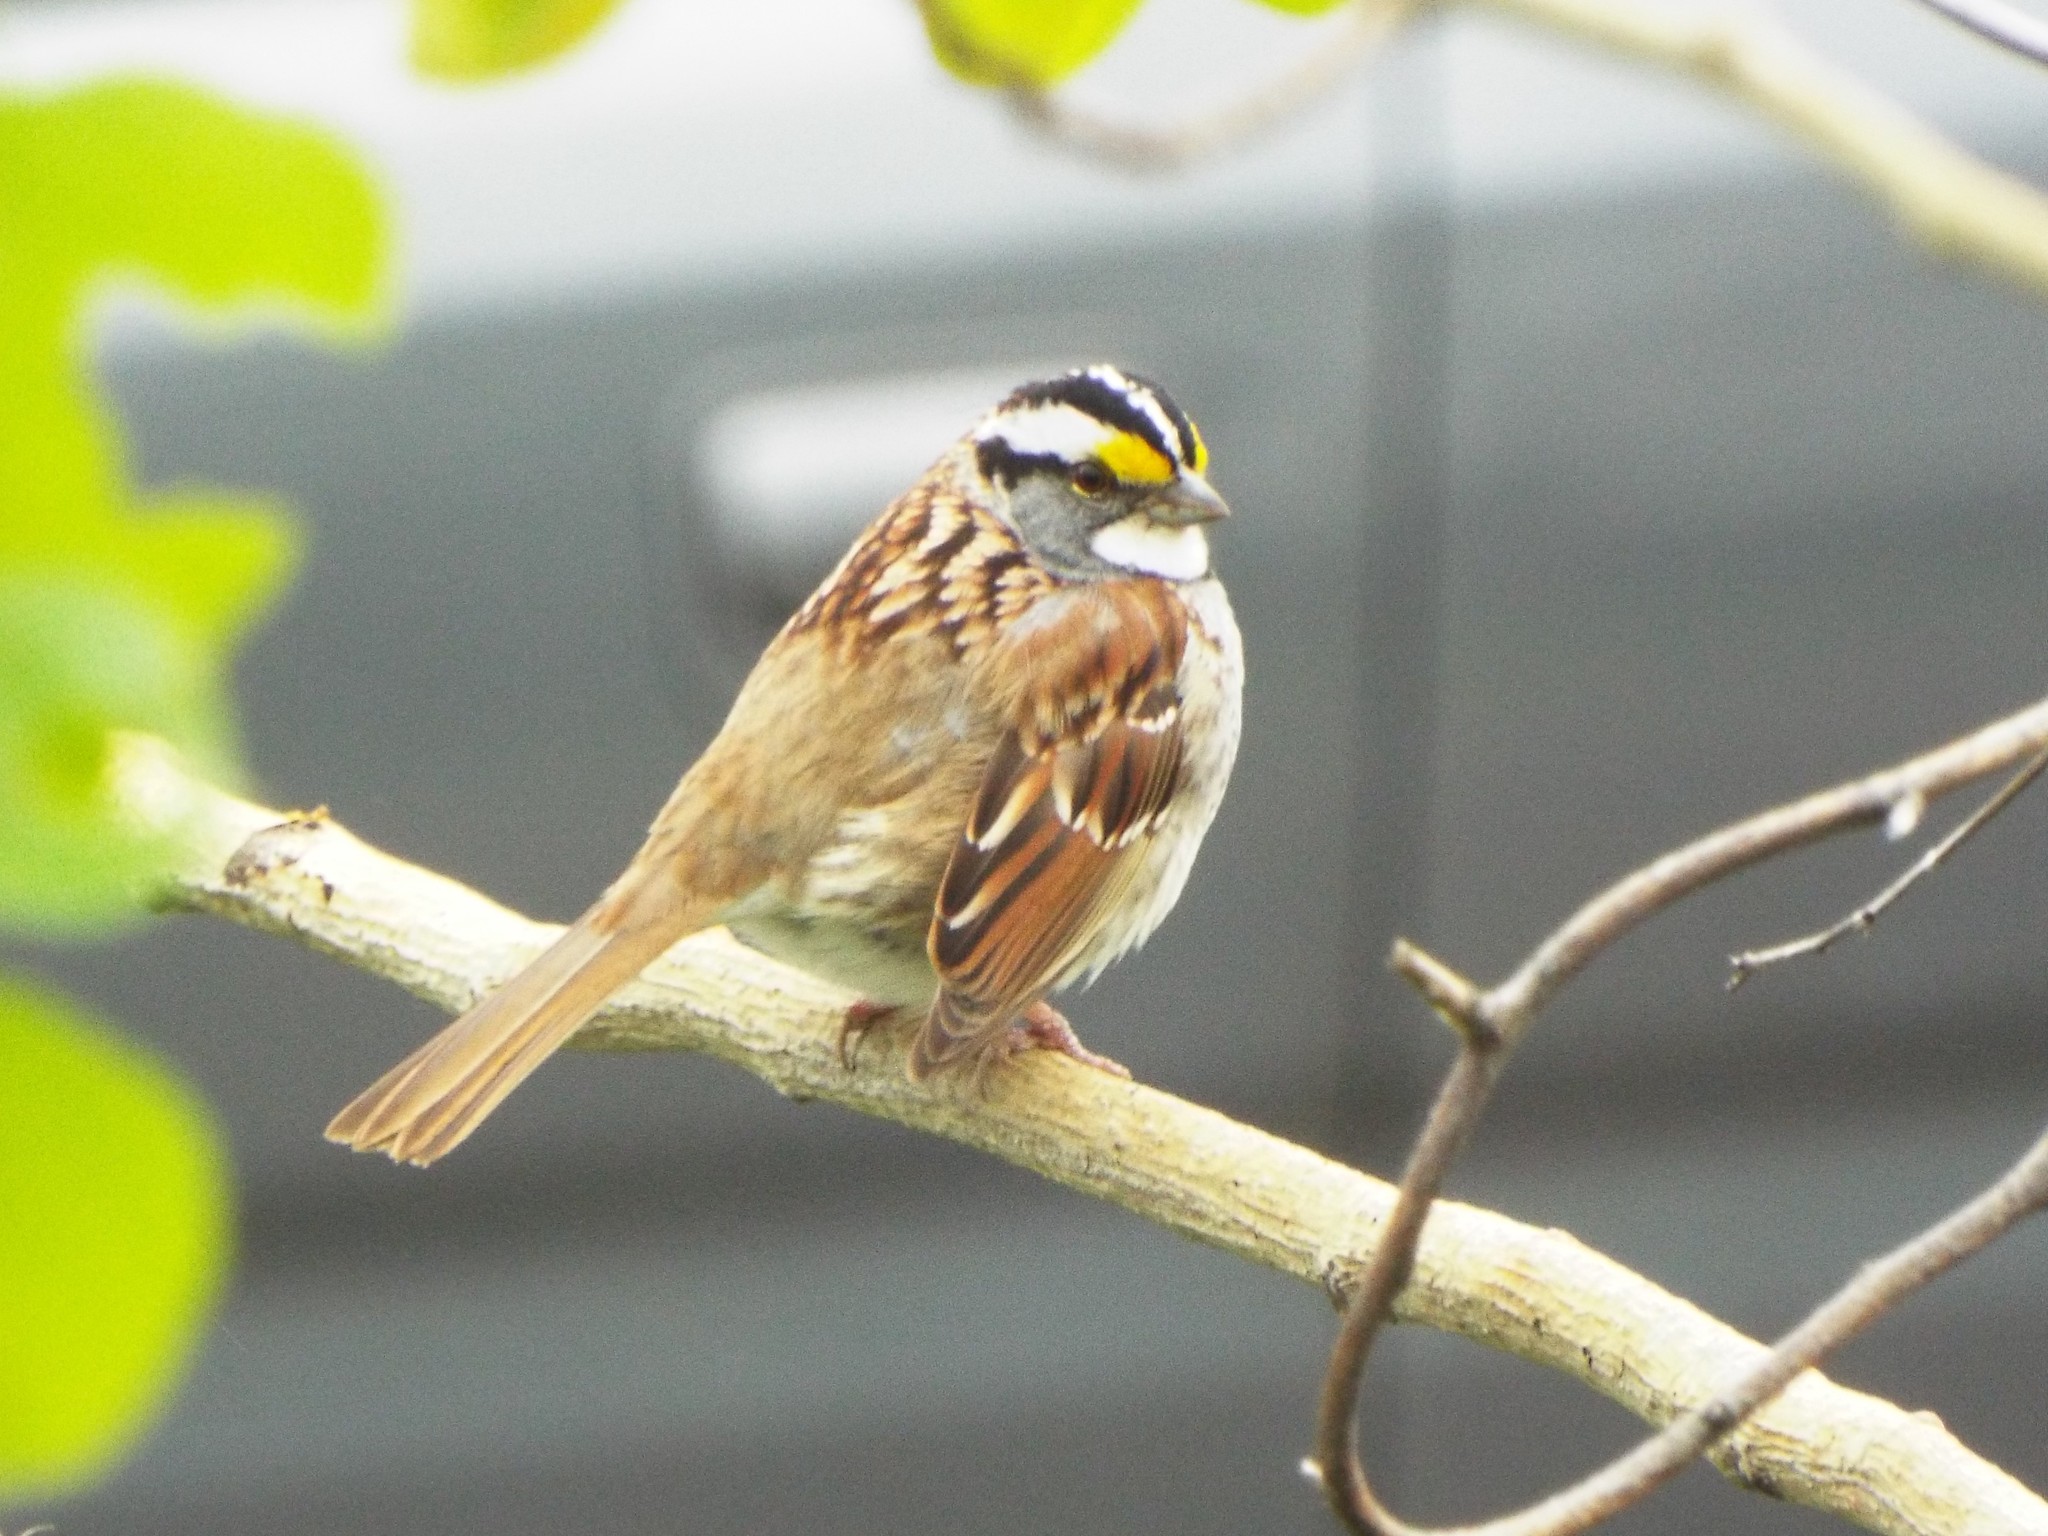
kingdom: Animalia
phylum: Chordata
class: Aves
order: Passeriformes
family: Passerellidae
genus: Zonotrichia
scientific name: Zonotrichia albicollis
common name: White-throated sparrow
